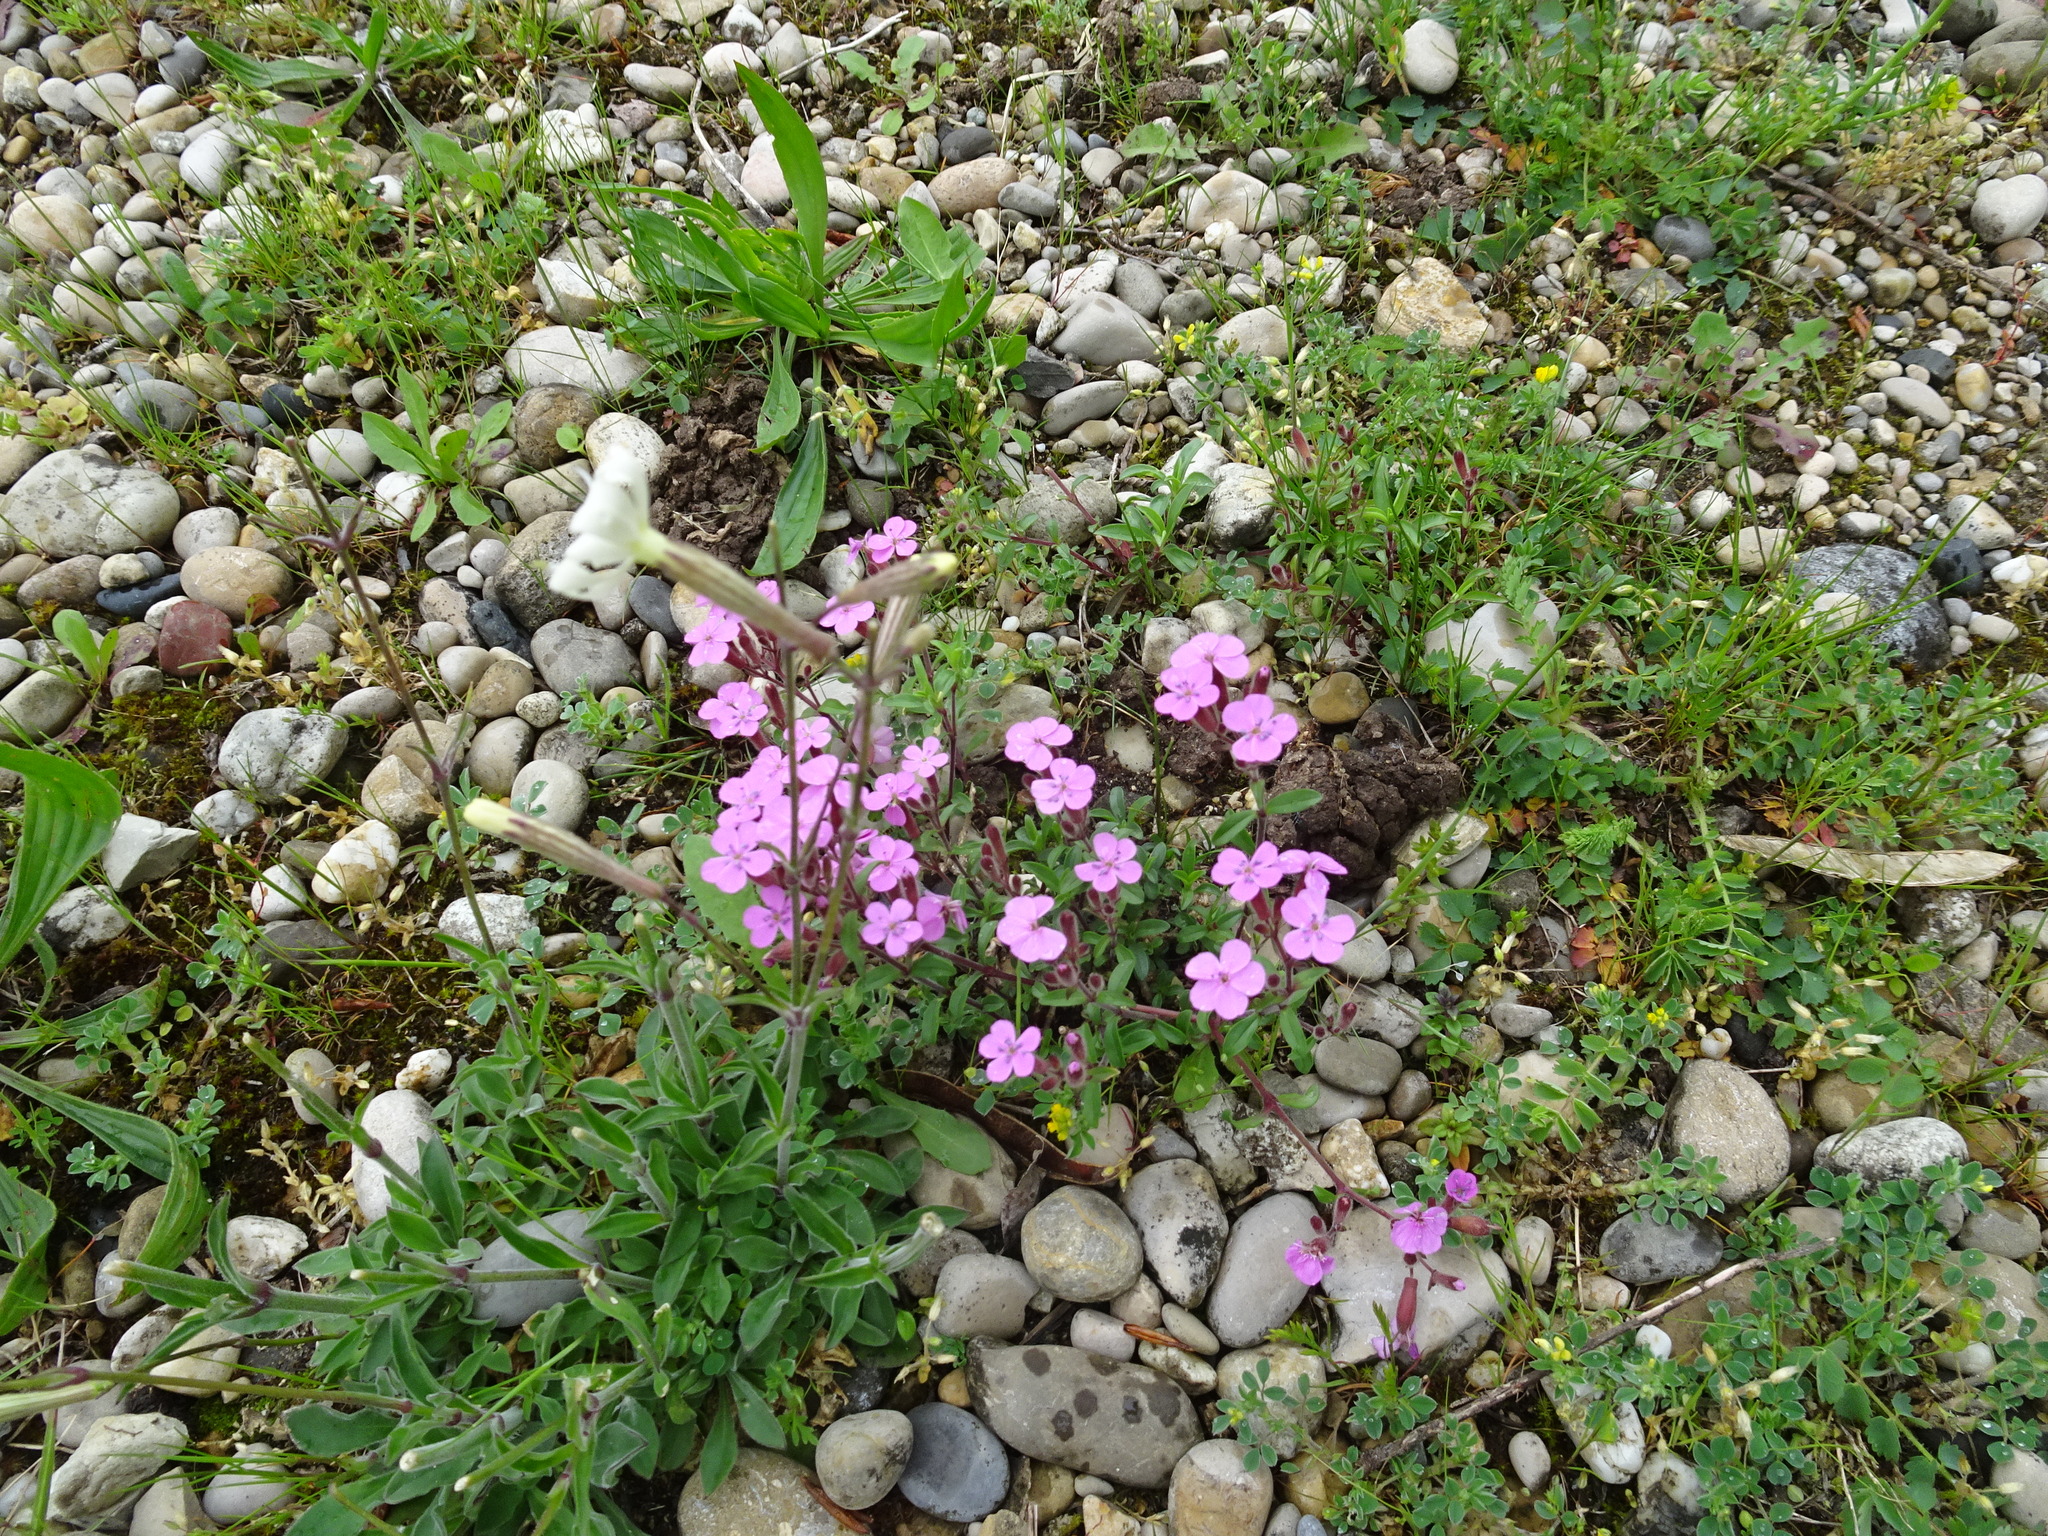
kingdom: Plantae
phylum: Tracheophyta
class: Magnoliopsida
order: Caryophyllales
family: Caryophyllaceae
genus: Saponaria
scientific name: Saponaria ocymoides
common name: Rock soapwort
